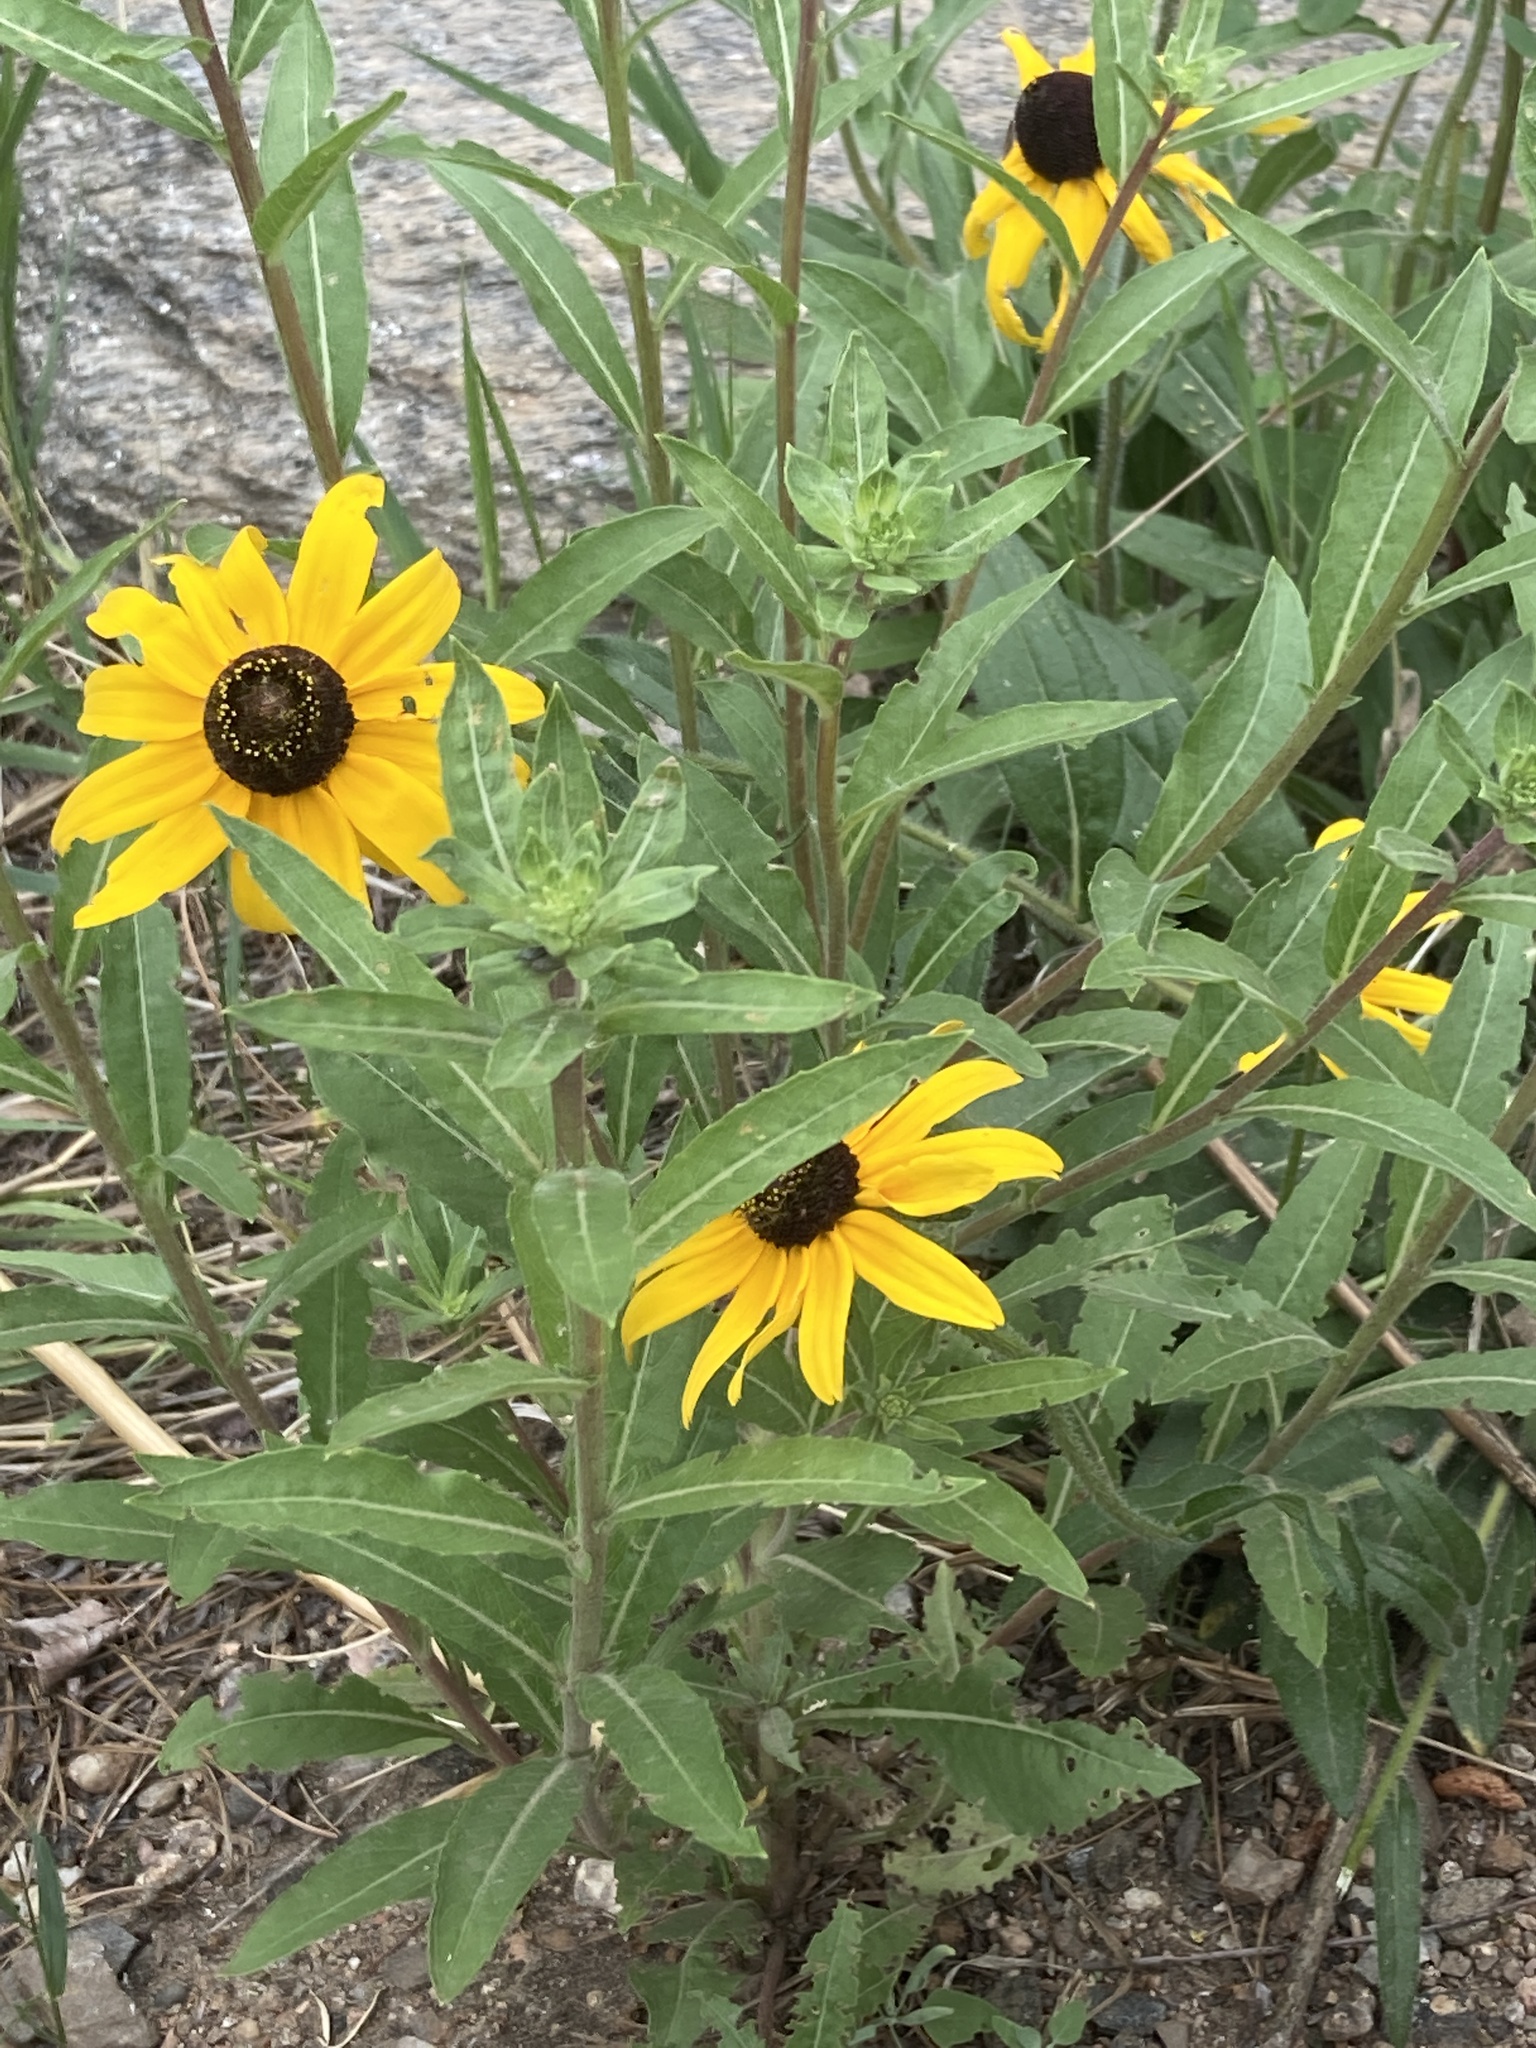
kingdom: Plantae
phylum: Tracheophyta
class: Magnoliopsida
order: Asterales
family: Asteraceae
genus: Rudbeckia
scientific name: Rudbeckia hirta
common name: Black-eyed-susan
